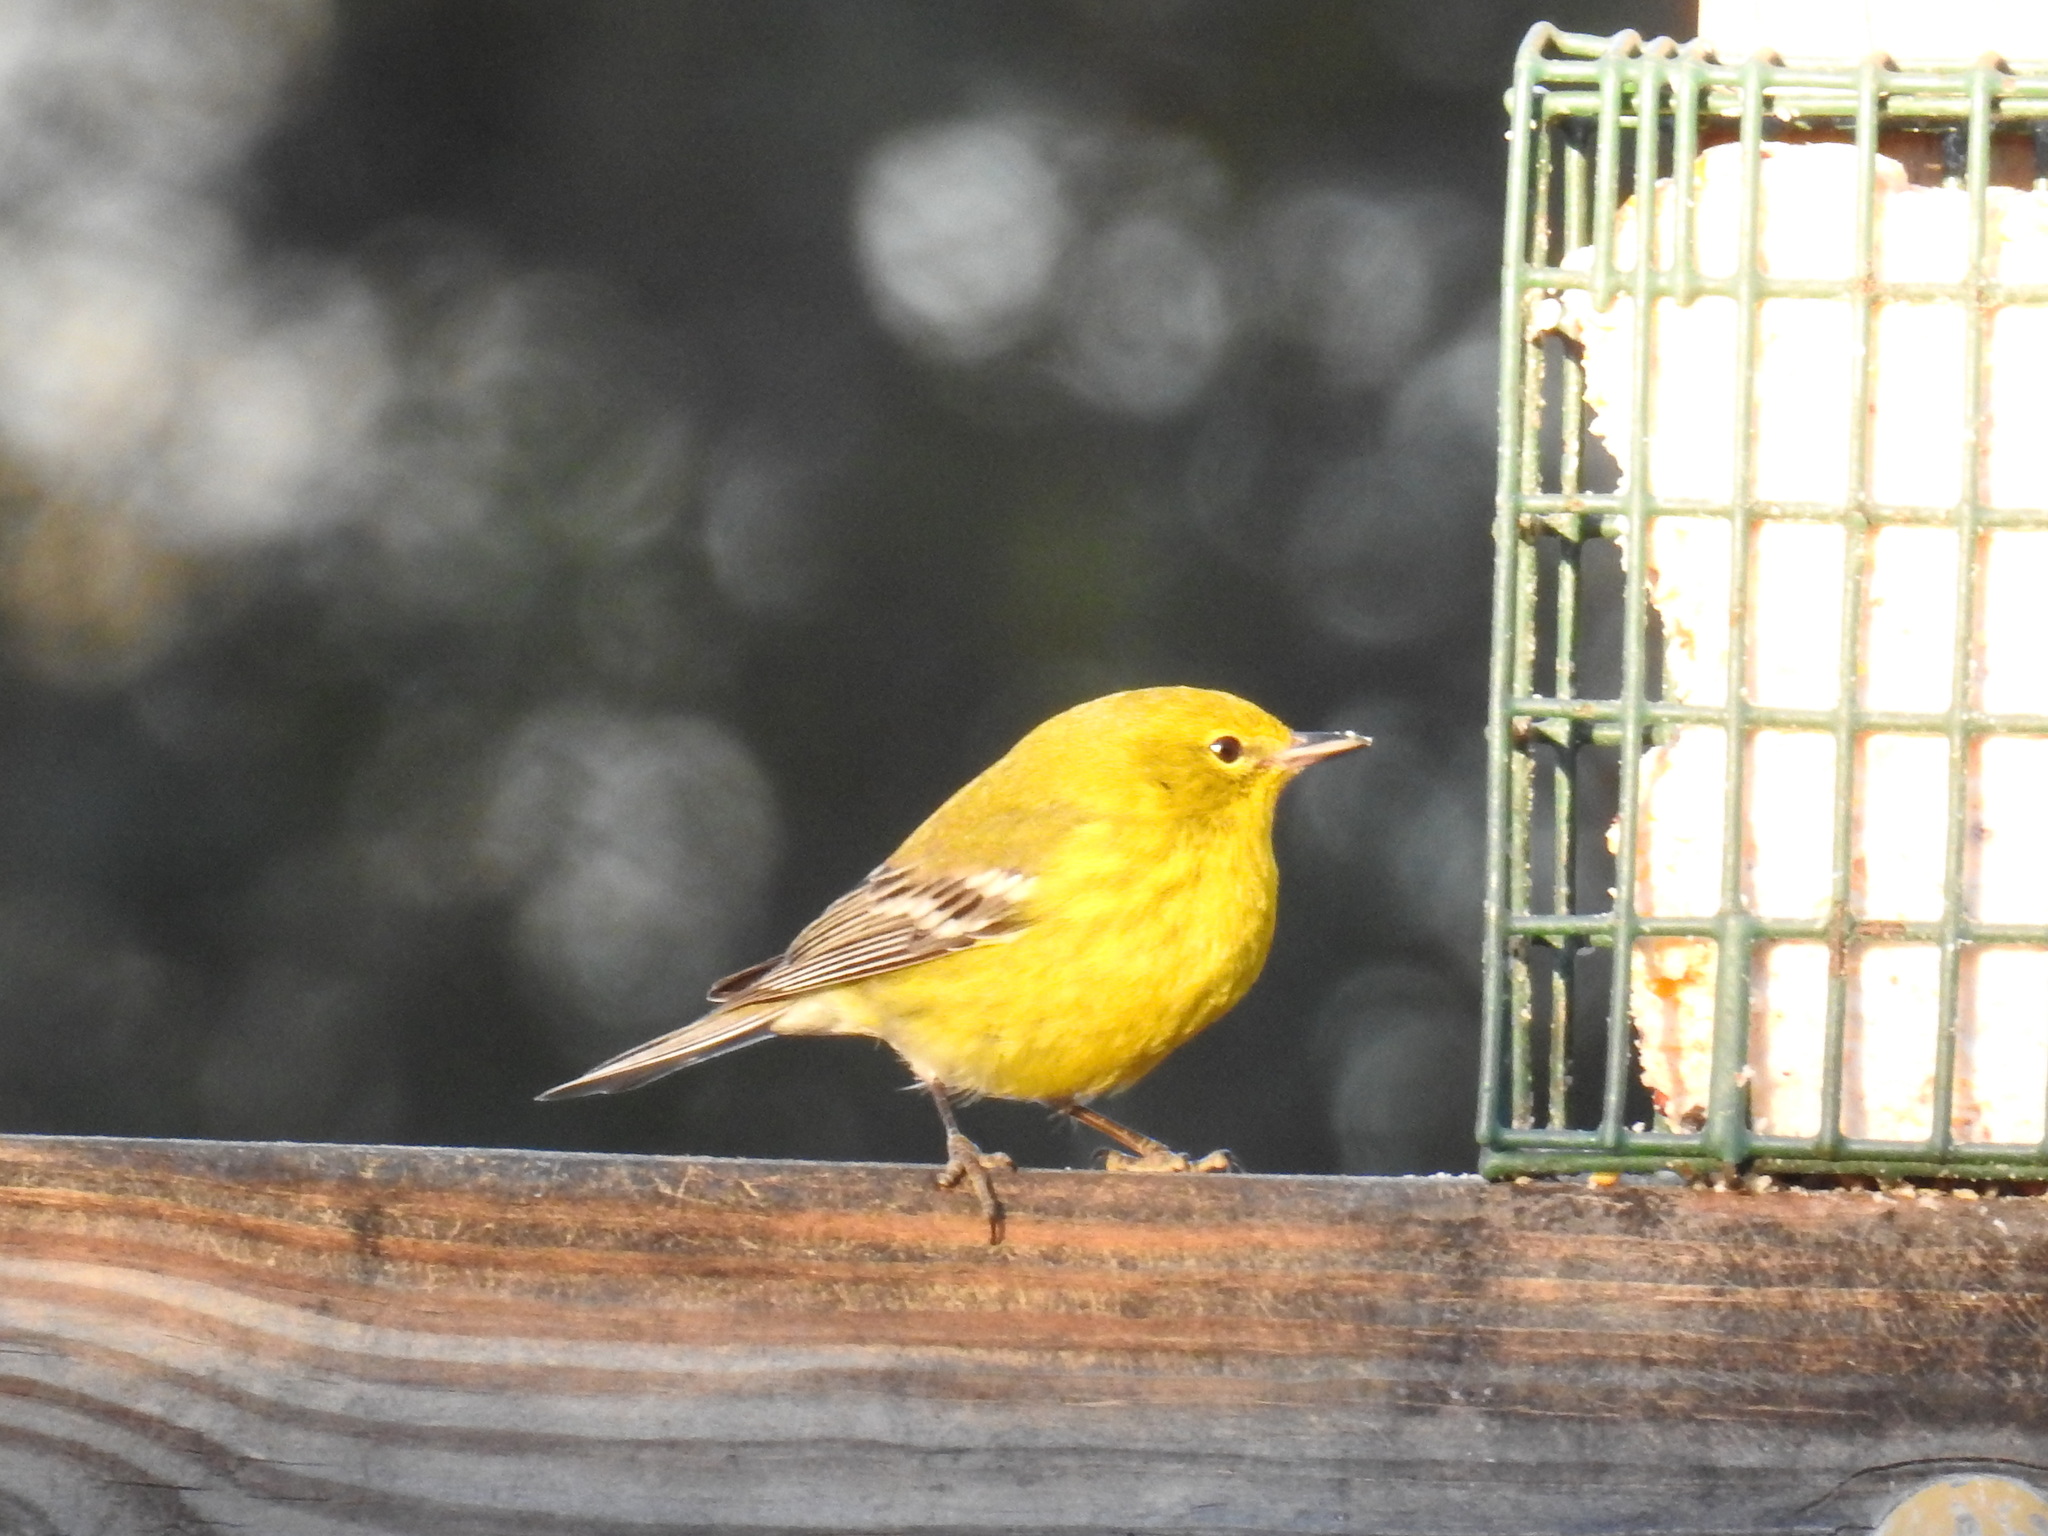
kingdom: Animalia
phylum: Chordata
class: Aves
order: Passeriformes
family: Parulidae
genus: Setophaga
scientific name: Setophaga pinus
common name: Pine warbler
